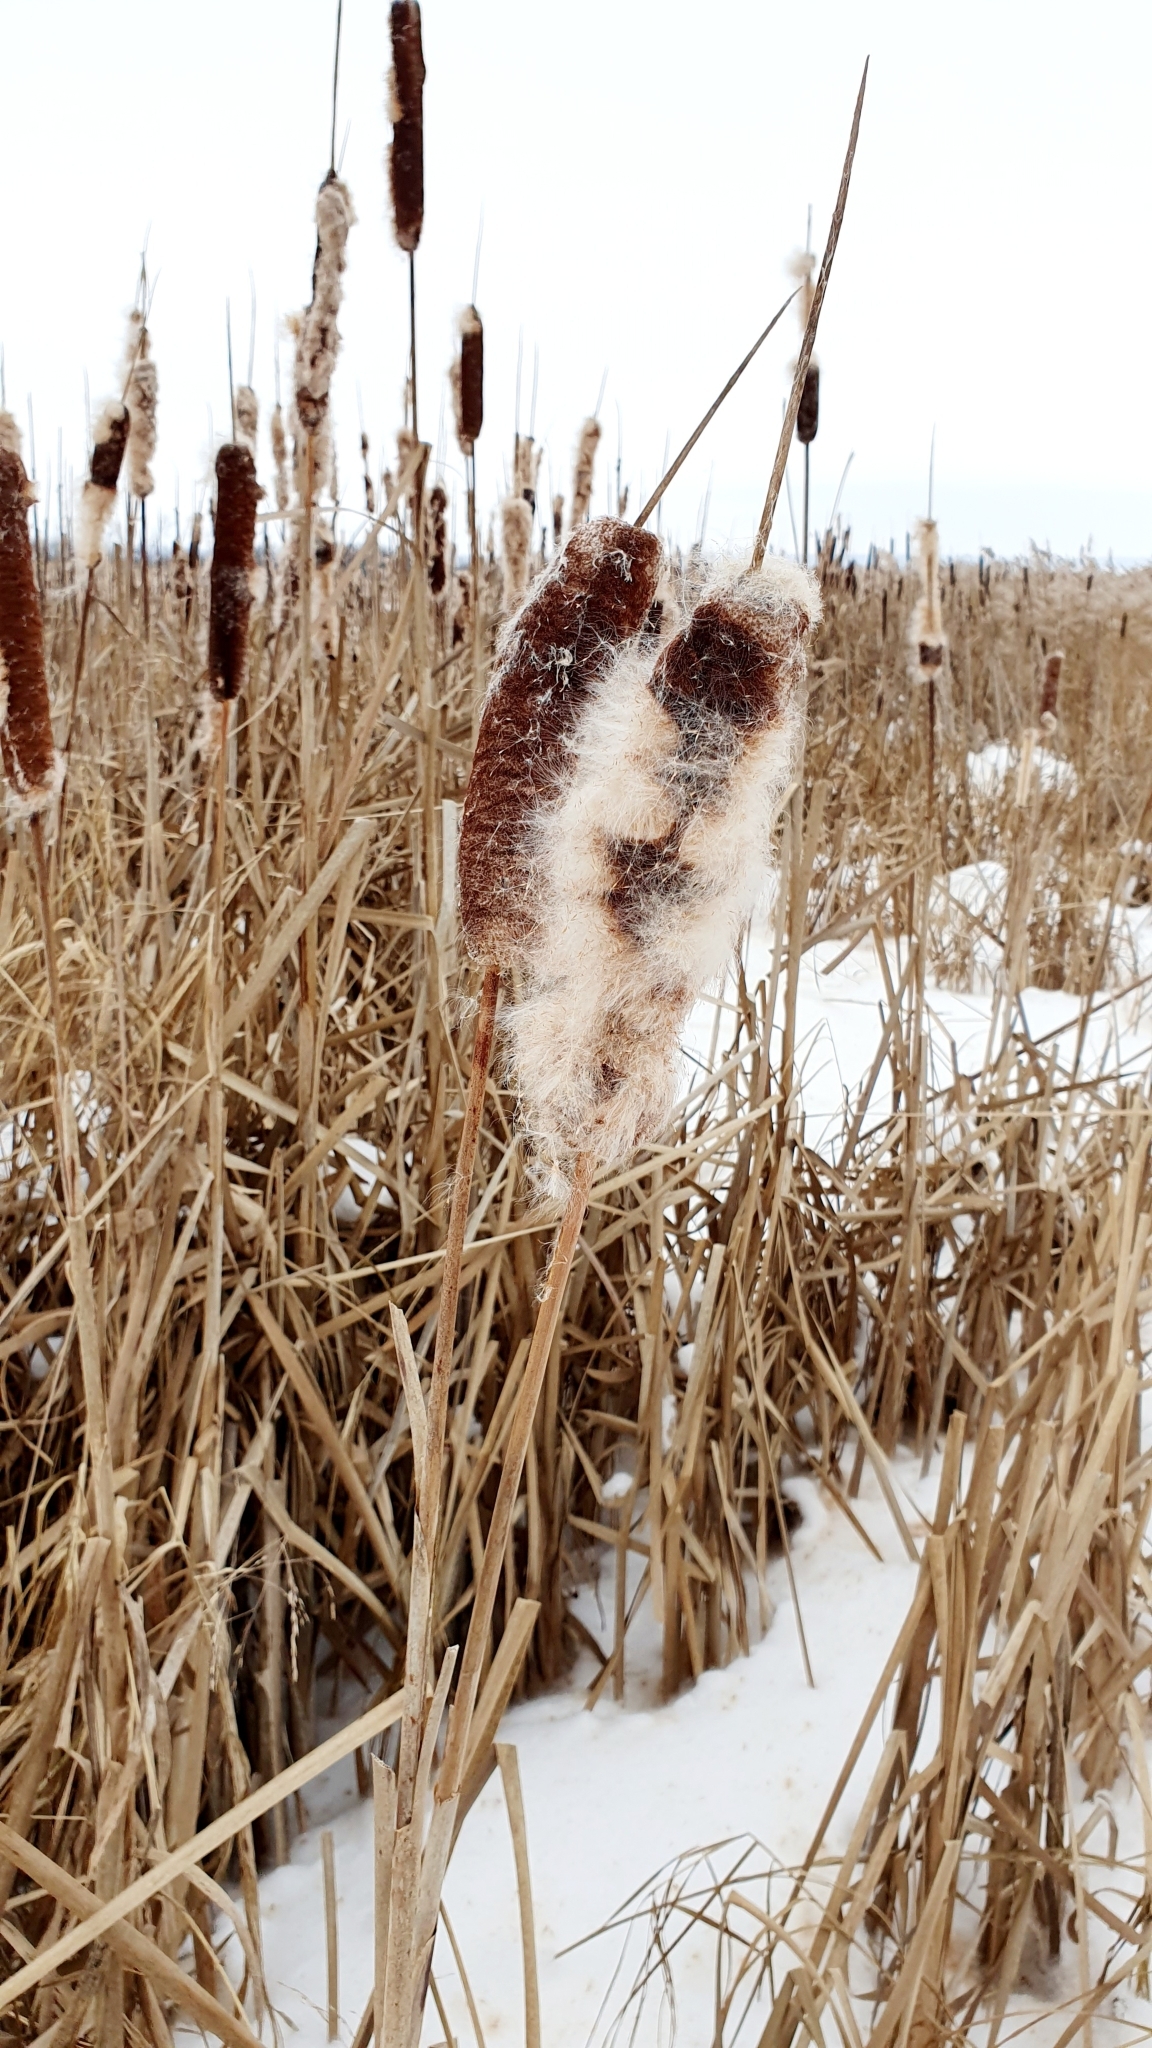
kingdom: Plantae
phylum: Tracheophyta
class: Liliopsida
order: Poales
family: Typhaceae
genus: Typha
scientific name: Typha latifolia
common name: Broadleaf cattail
